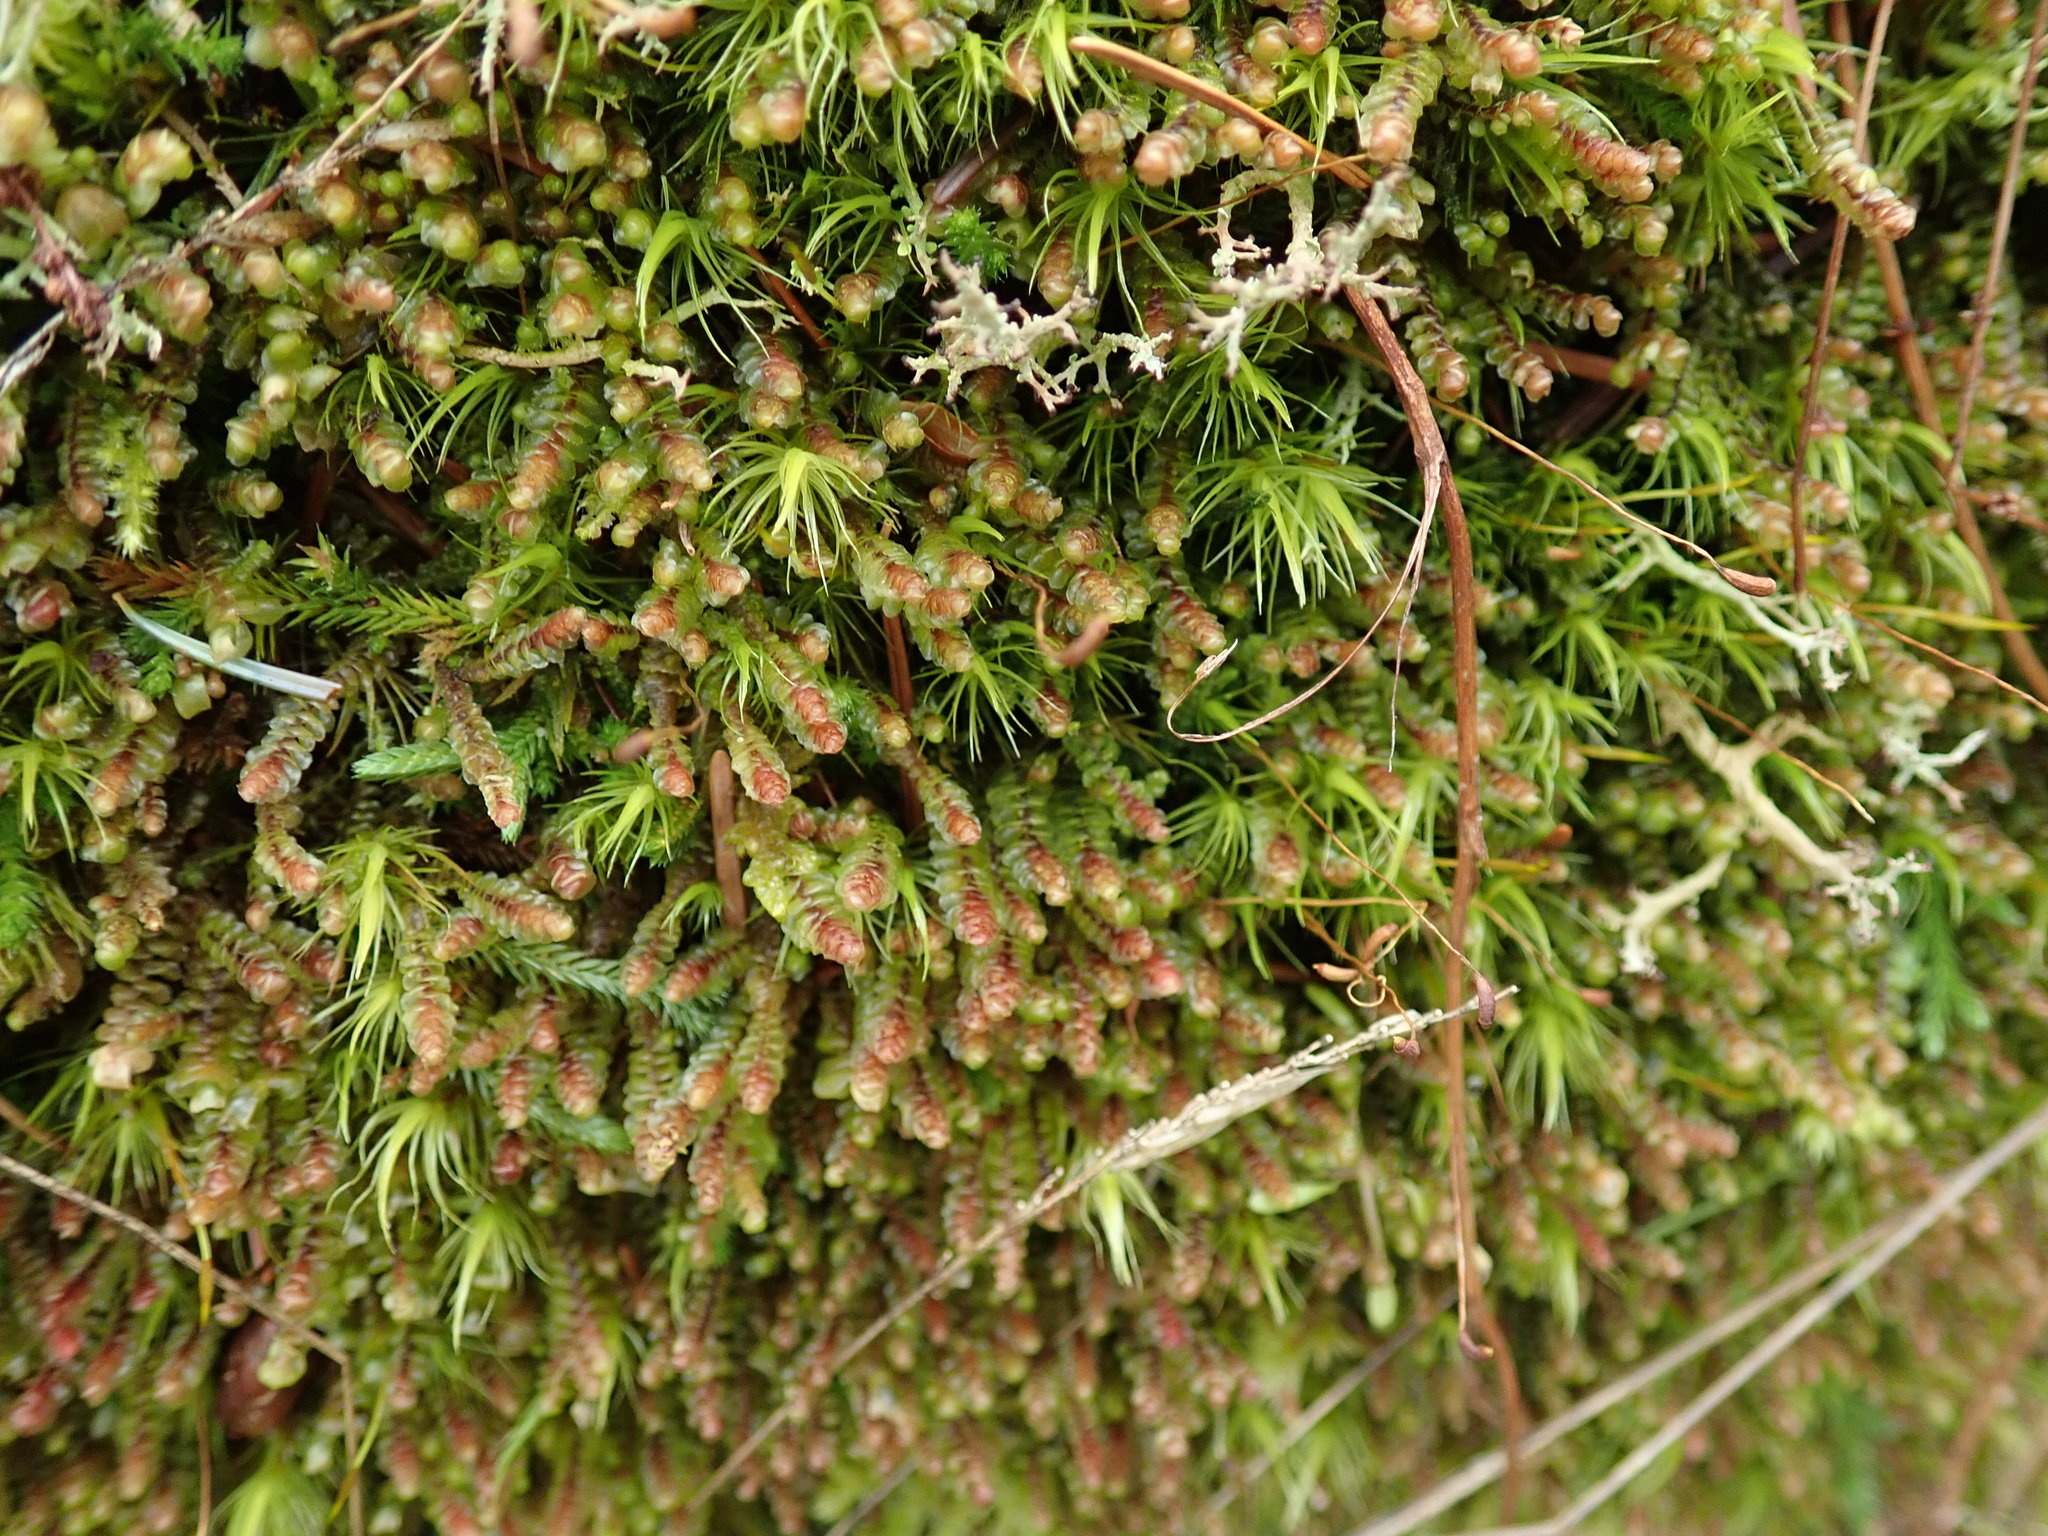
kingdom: Plantae
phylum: Marchantiophyta
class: Jungermanniopsida
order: Jungermanniales
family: Scapaniaceae
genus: Scapania
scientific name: Scapania americana
